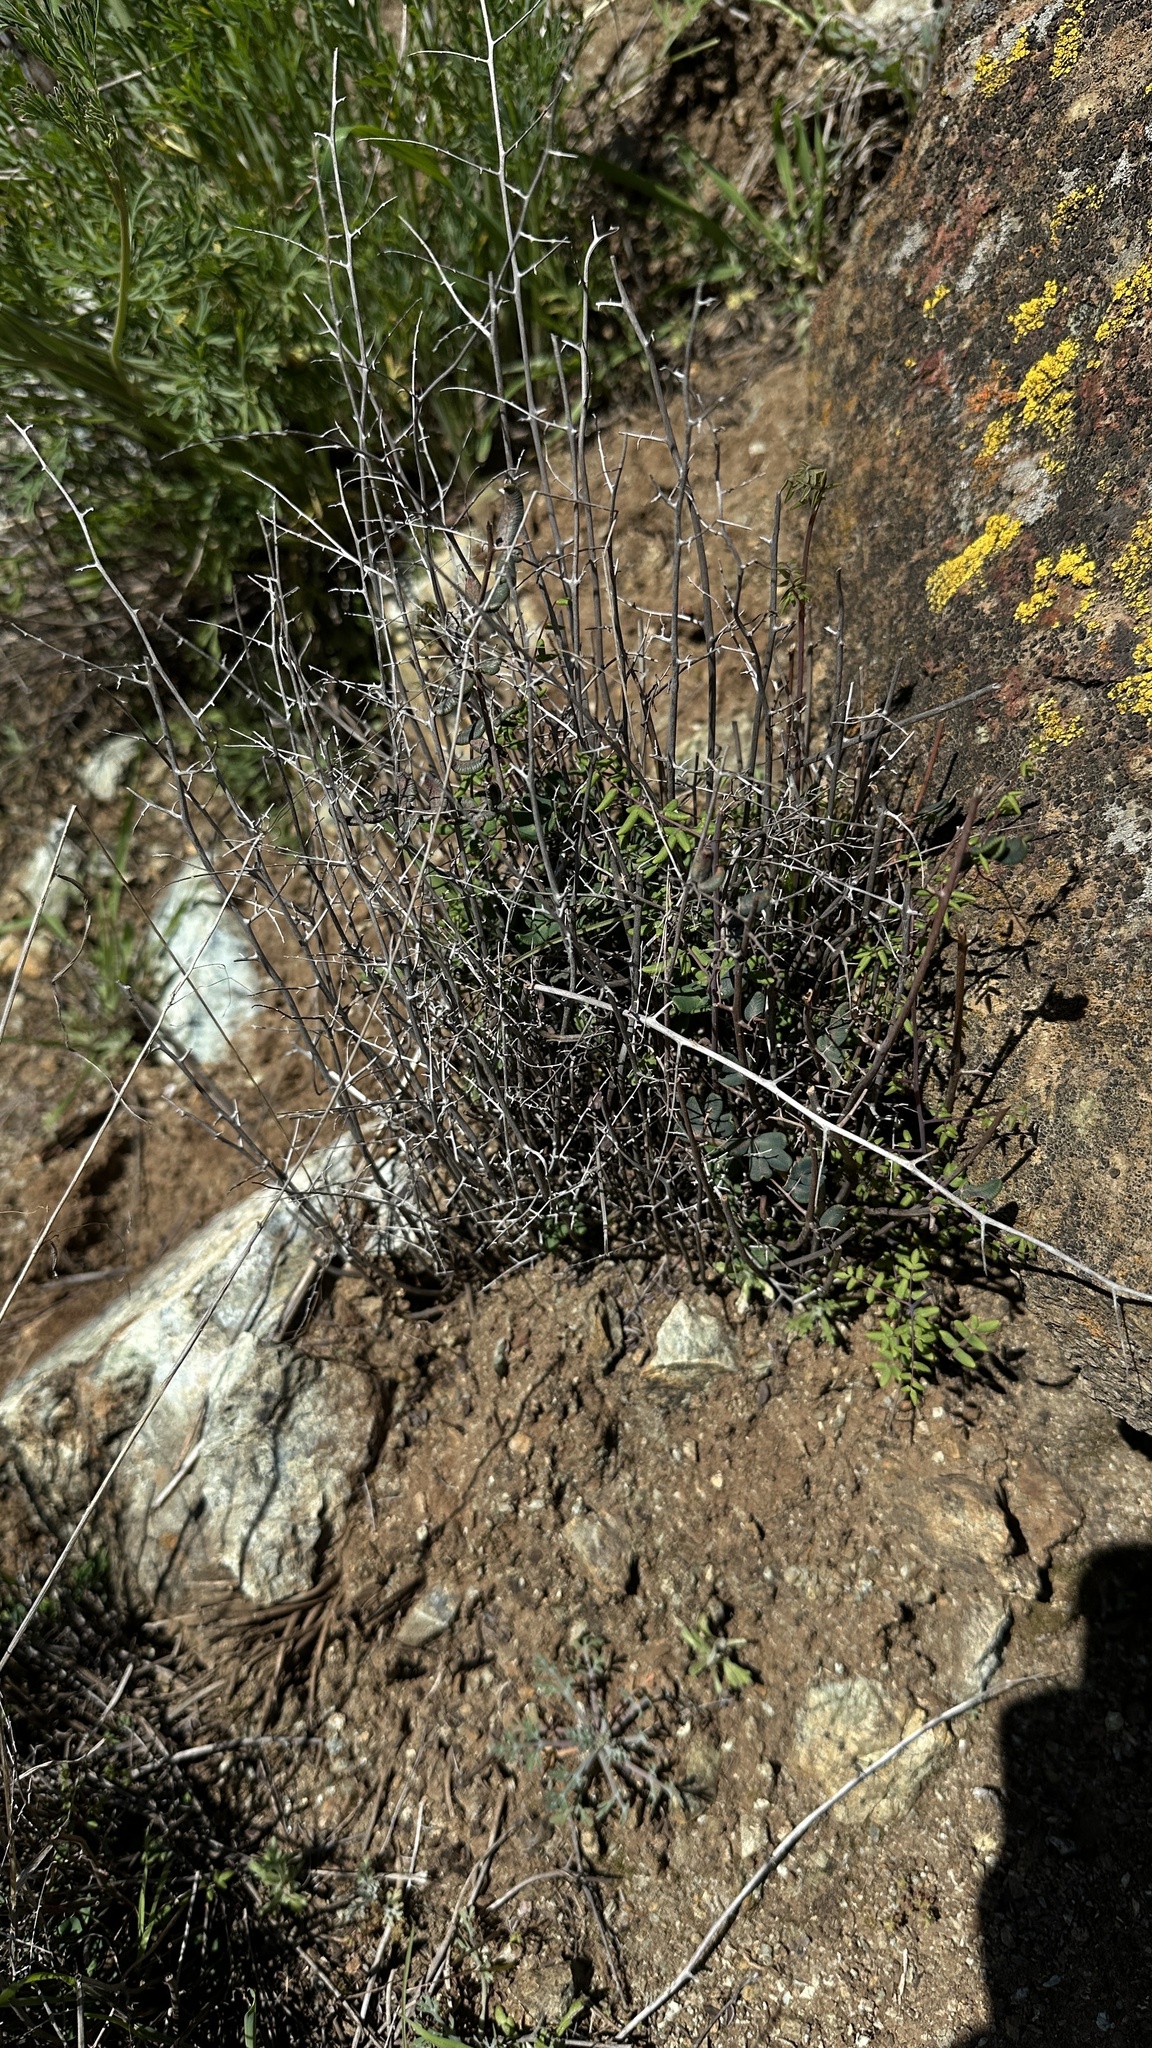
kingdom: Plantae
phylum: Tracheophyta
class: Polypodiopsida
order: Polypodiales
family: Pteridaceae
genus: Pellaea
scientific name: Pellaea andromedifolia
